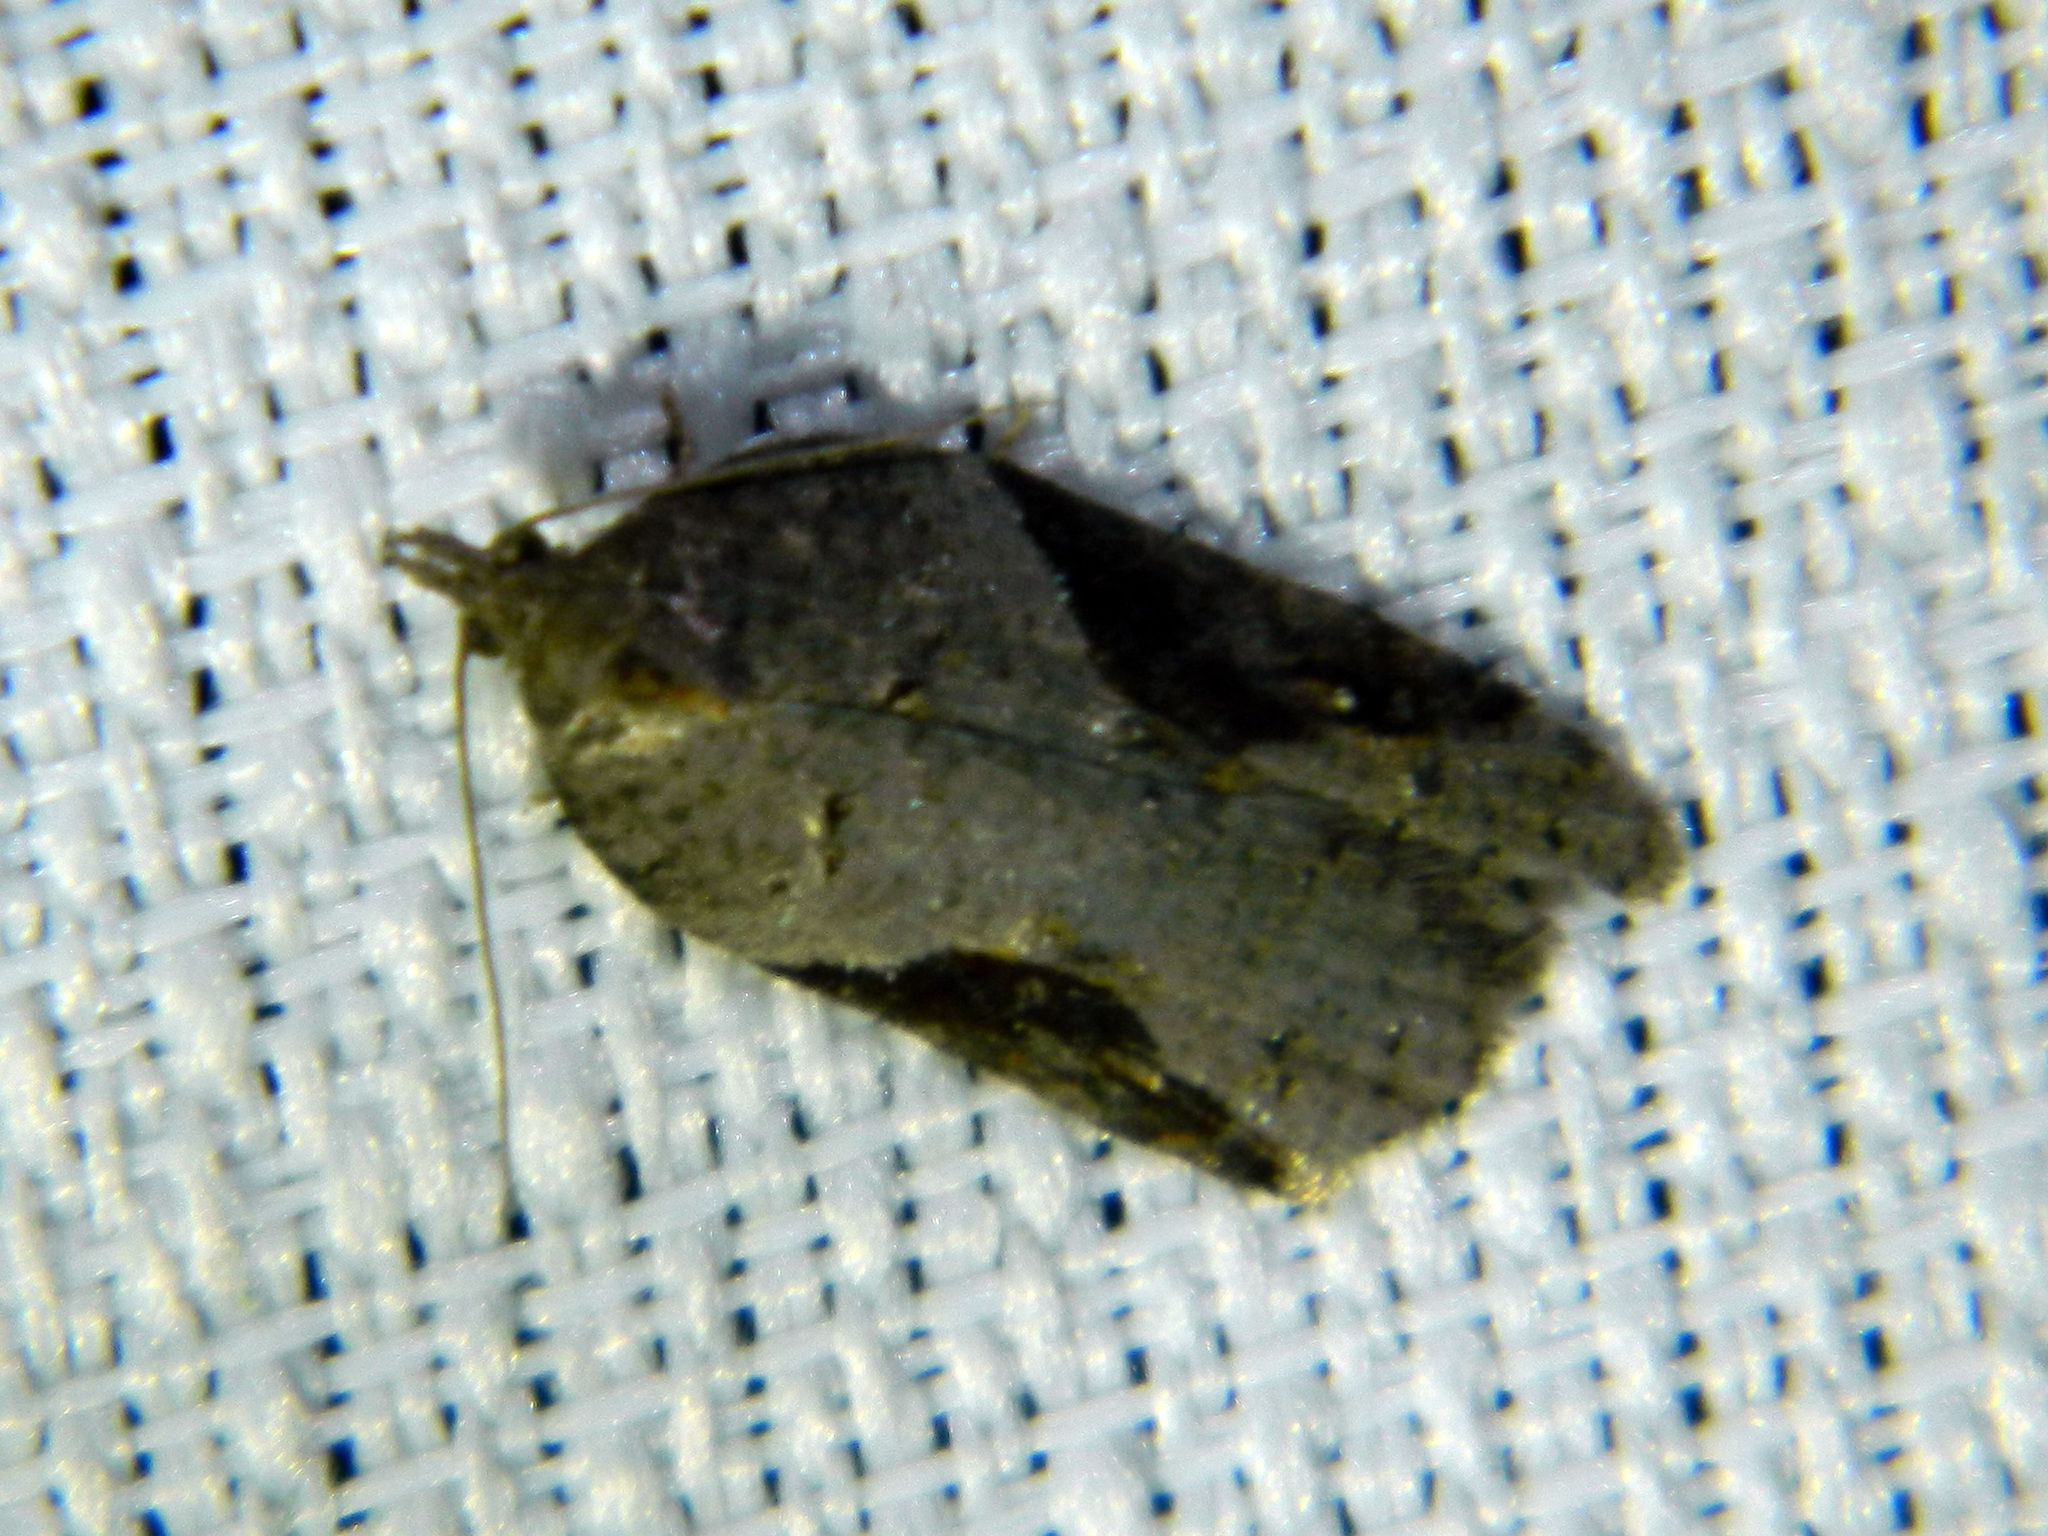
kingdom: Animalia
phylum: Arthropoda
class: Insecta
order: Lepidoptera
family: Tortricidae
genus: Acleris
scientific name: Acleris macdunnoughi
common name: Macdunnough's acleris
